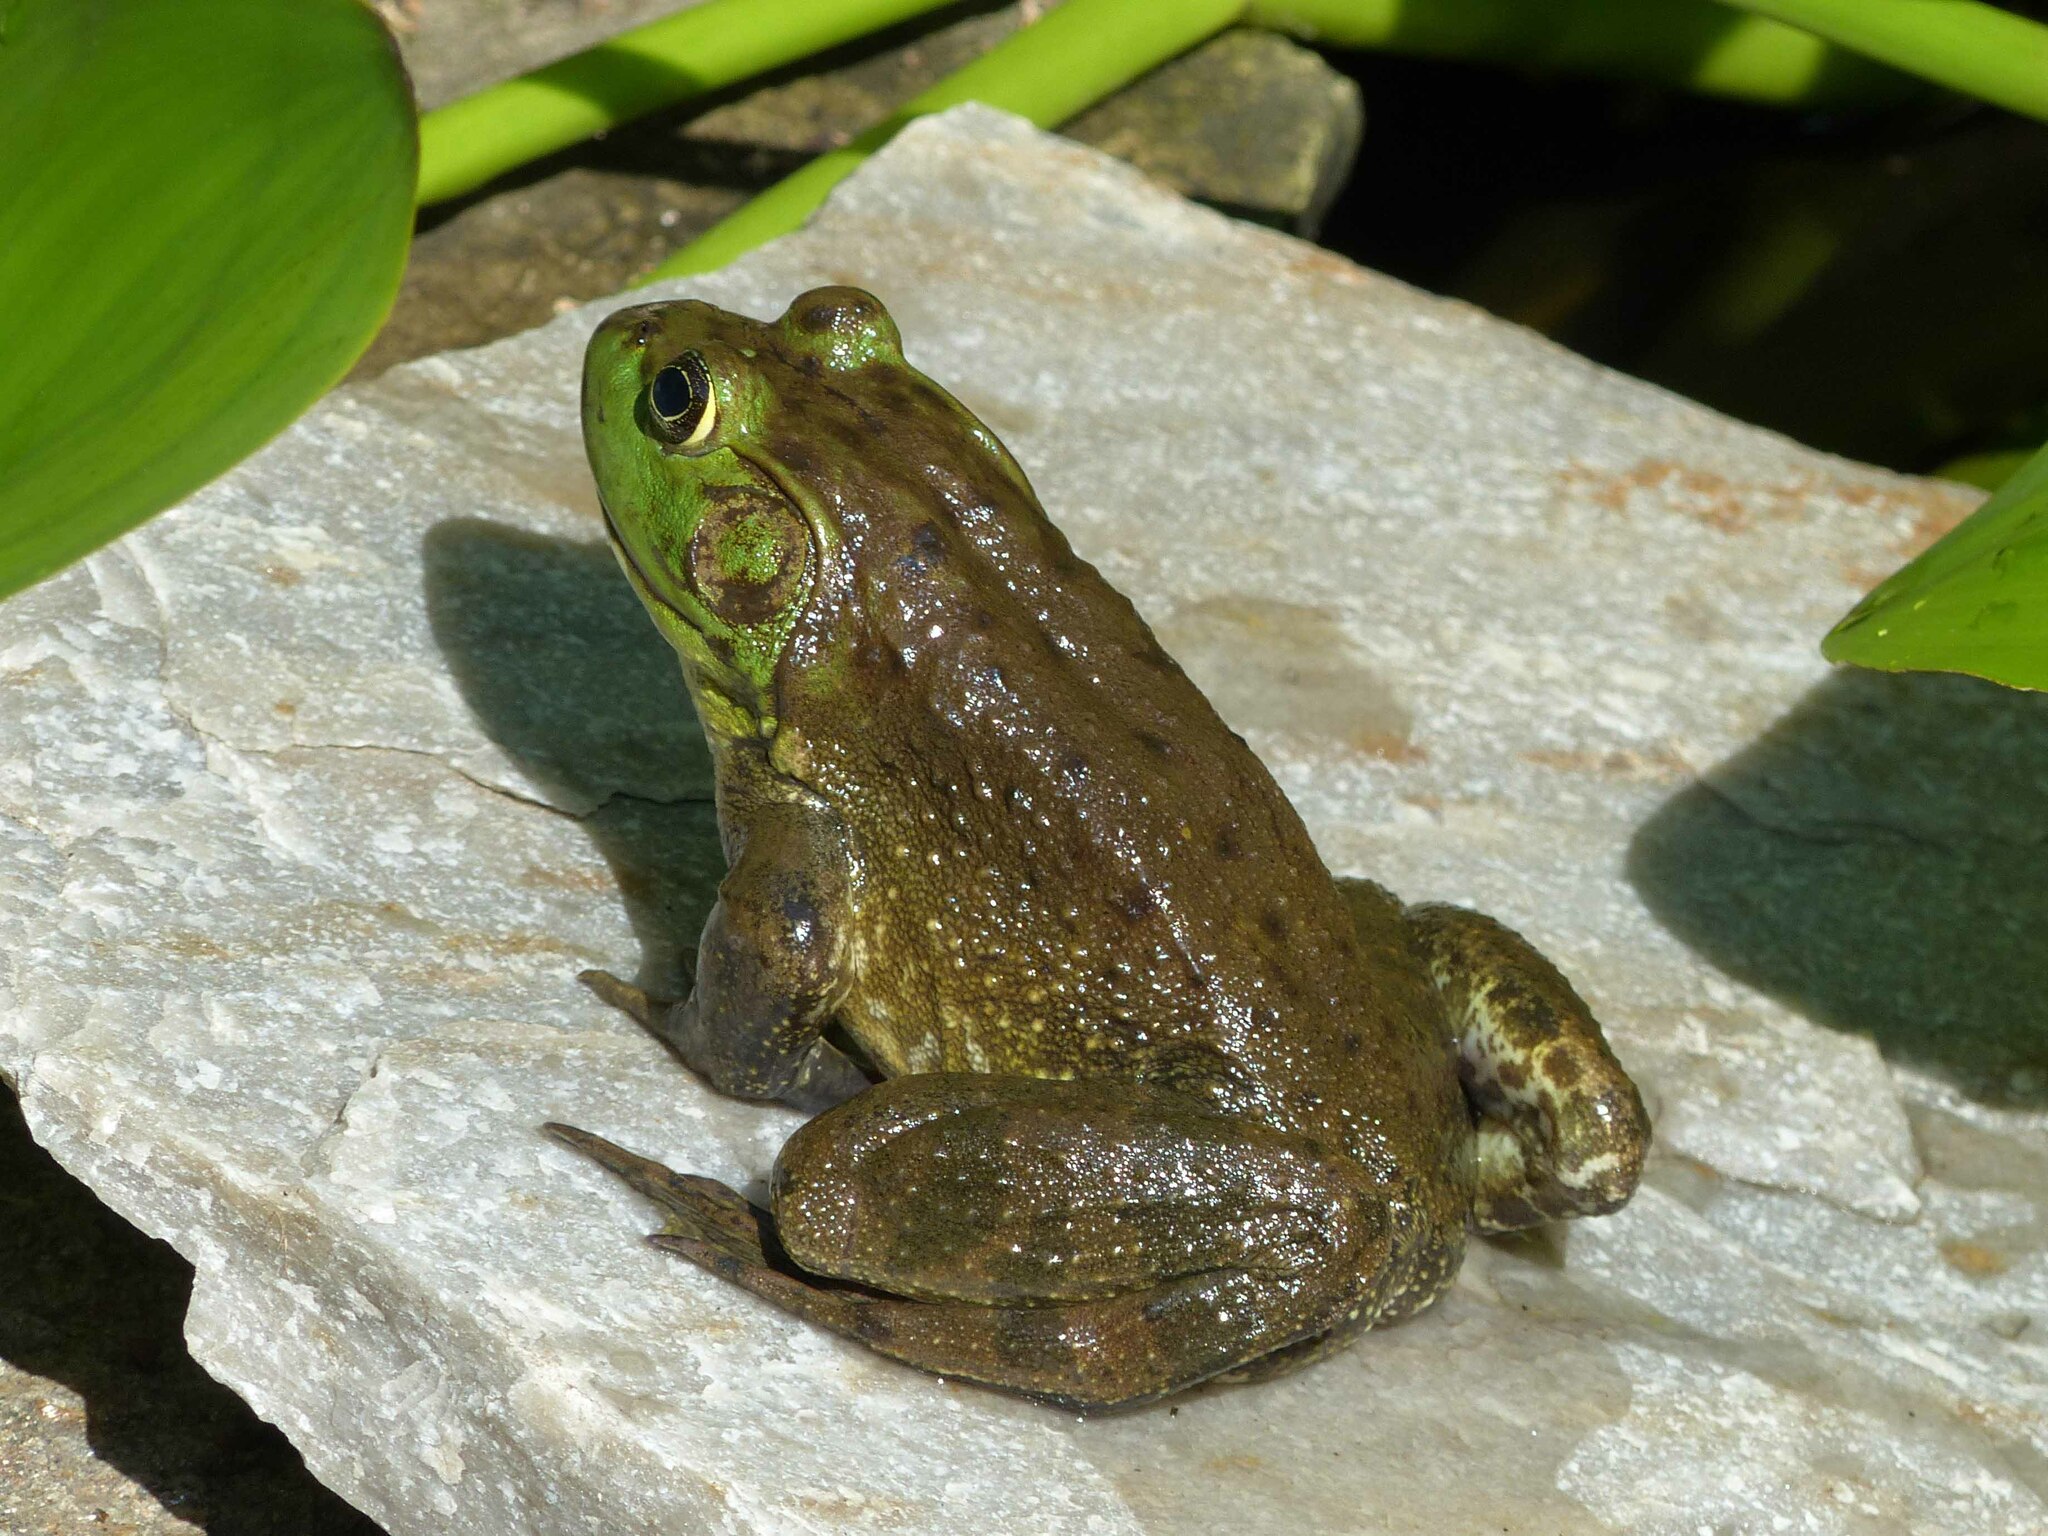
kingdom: Animalia
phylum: Chordata
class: Amphibia
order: Anura
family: Ranidae
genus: Lithobates
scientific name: Lithobates catesbeianus
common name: American bullfrog
